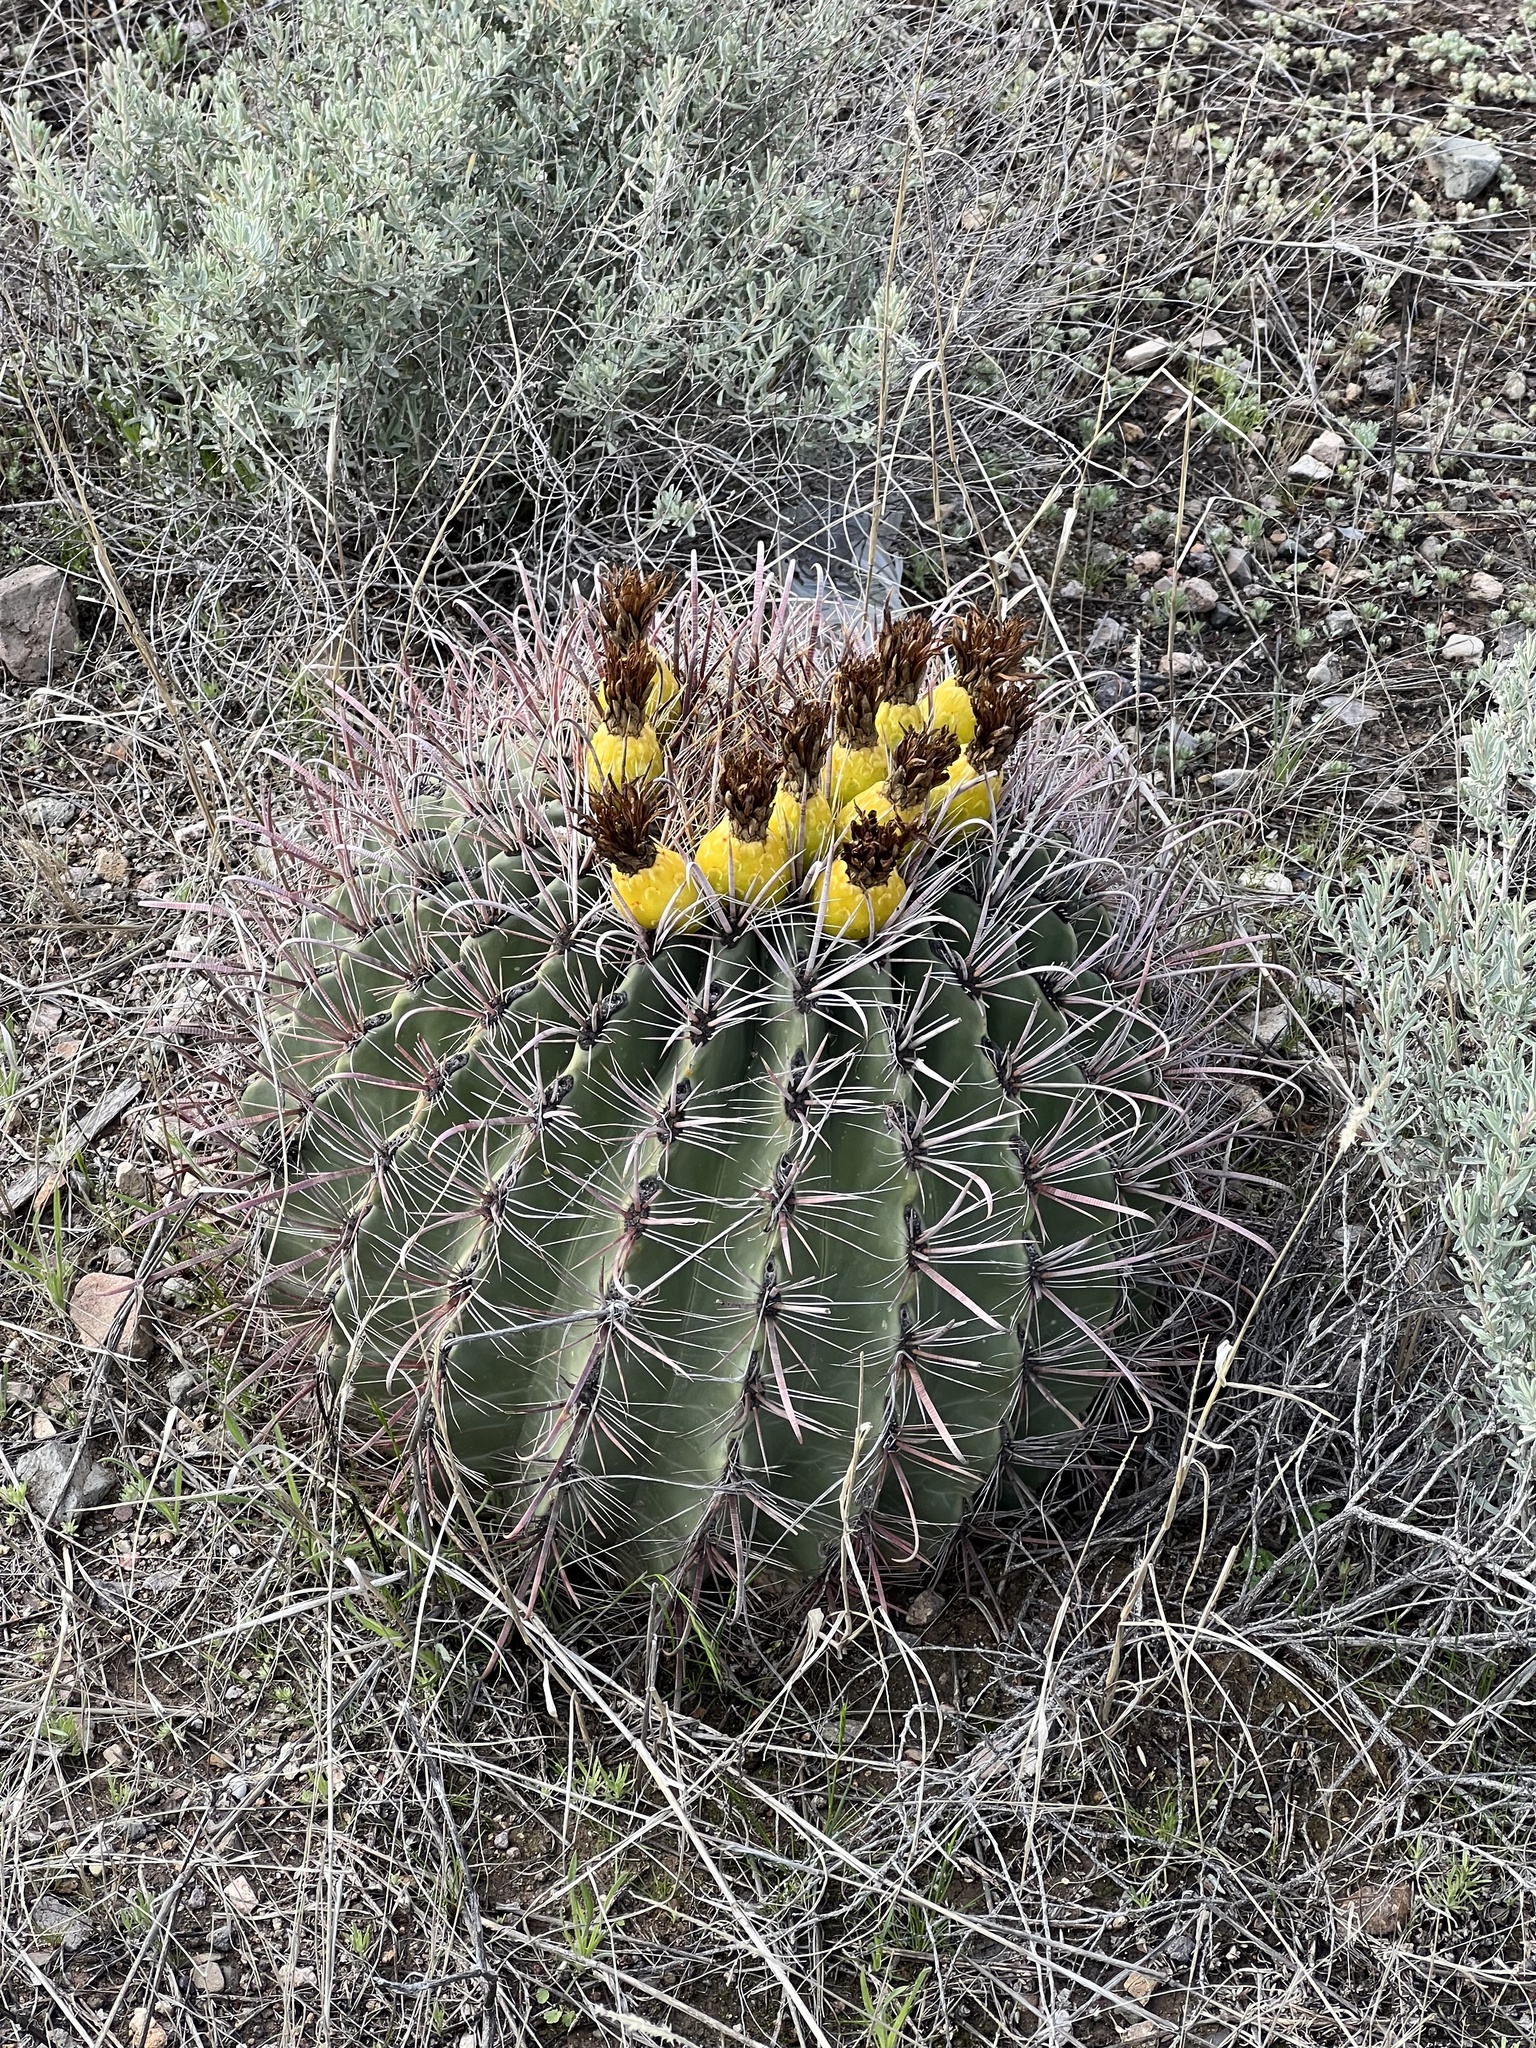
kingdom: Plantae
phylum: Tracheophyta
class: Magnoliopsida
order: Caryophyllales
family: Cactaceae
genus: Ferocactus
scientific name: Ferocactus wislizeni
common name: Candy barrel cactus
